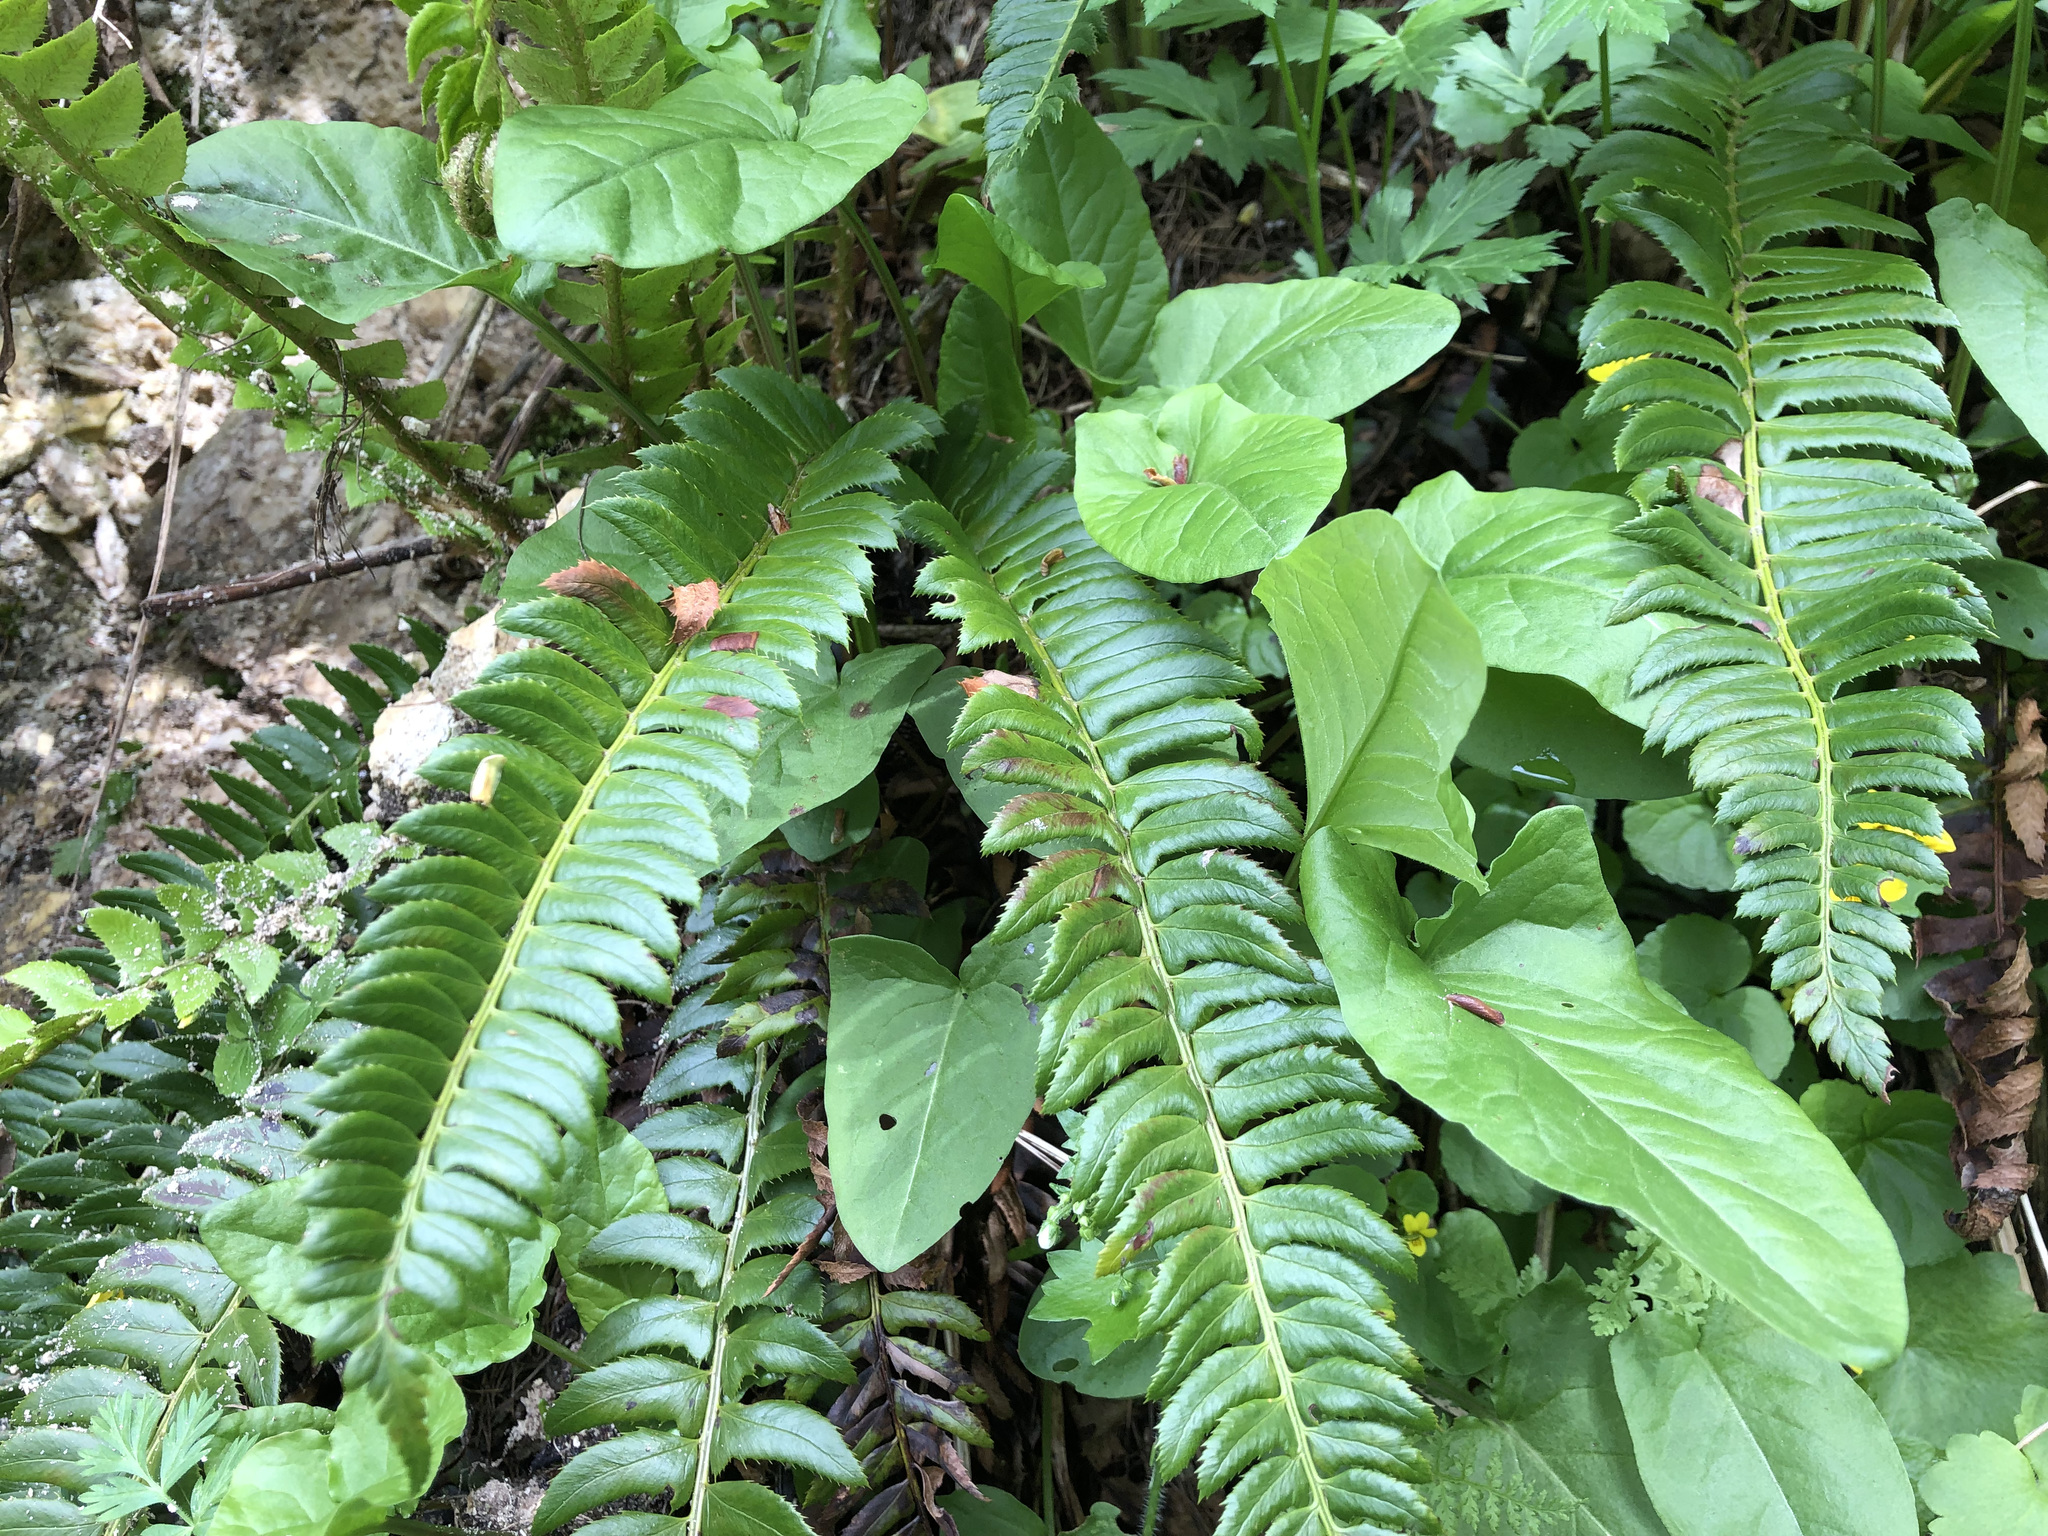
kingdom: Plantae
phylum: Tracheophyta
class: Polypodiopsida
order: Polypodiales
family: Dryopteridaceae
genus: Polystichum
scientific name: Polystichum lonchitis
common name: Holly fern
